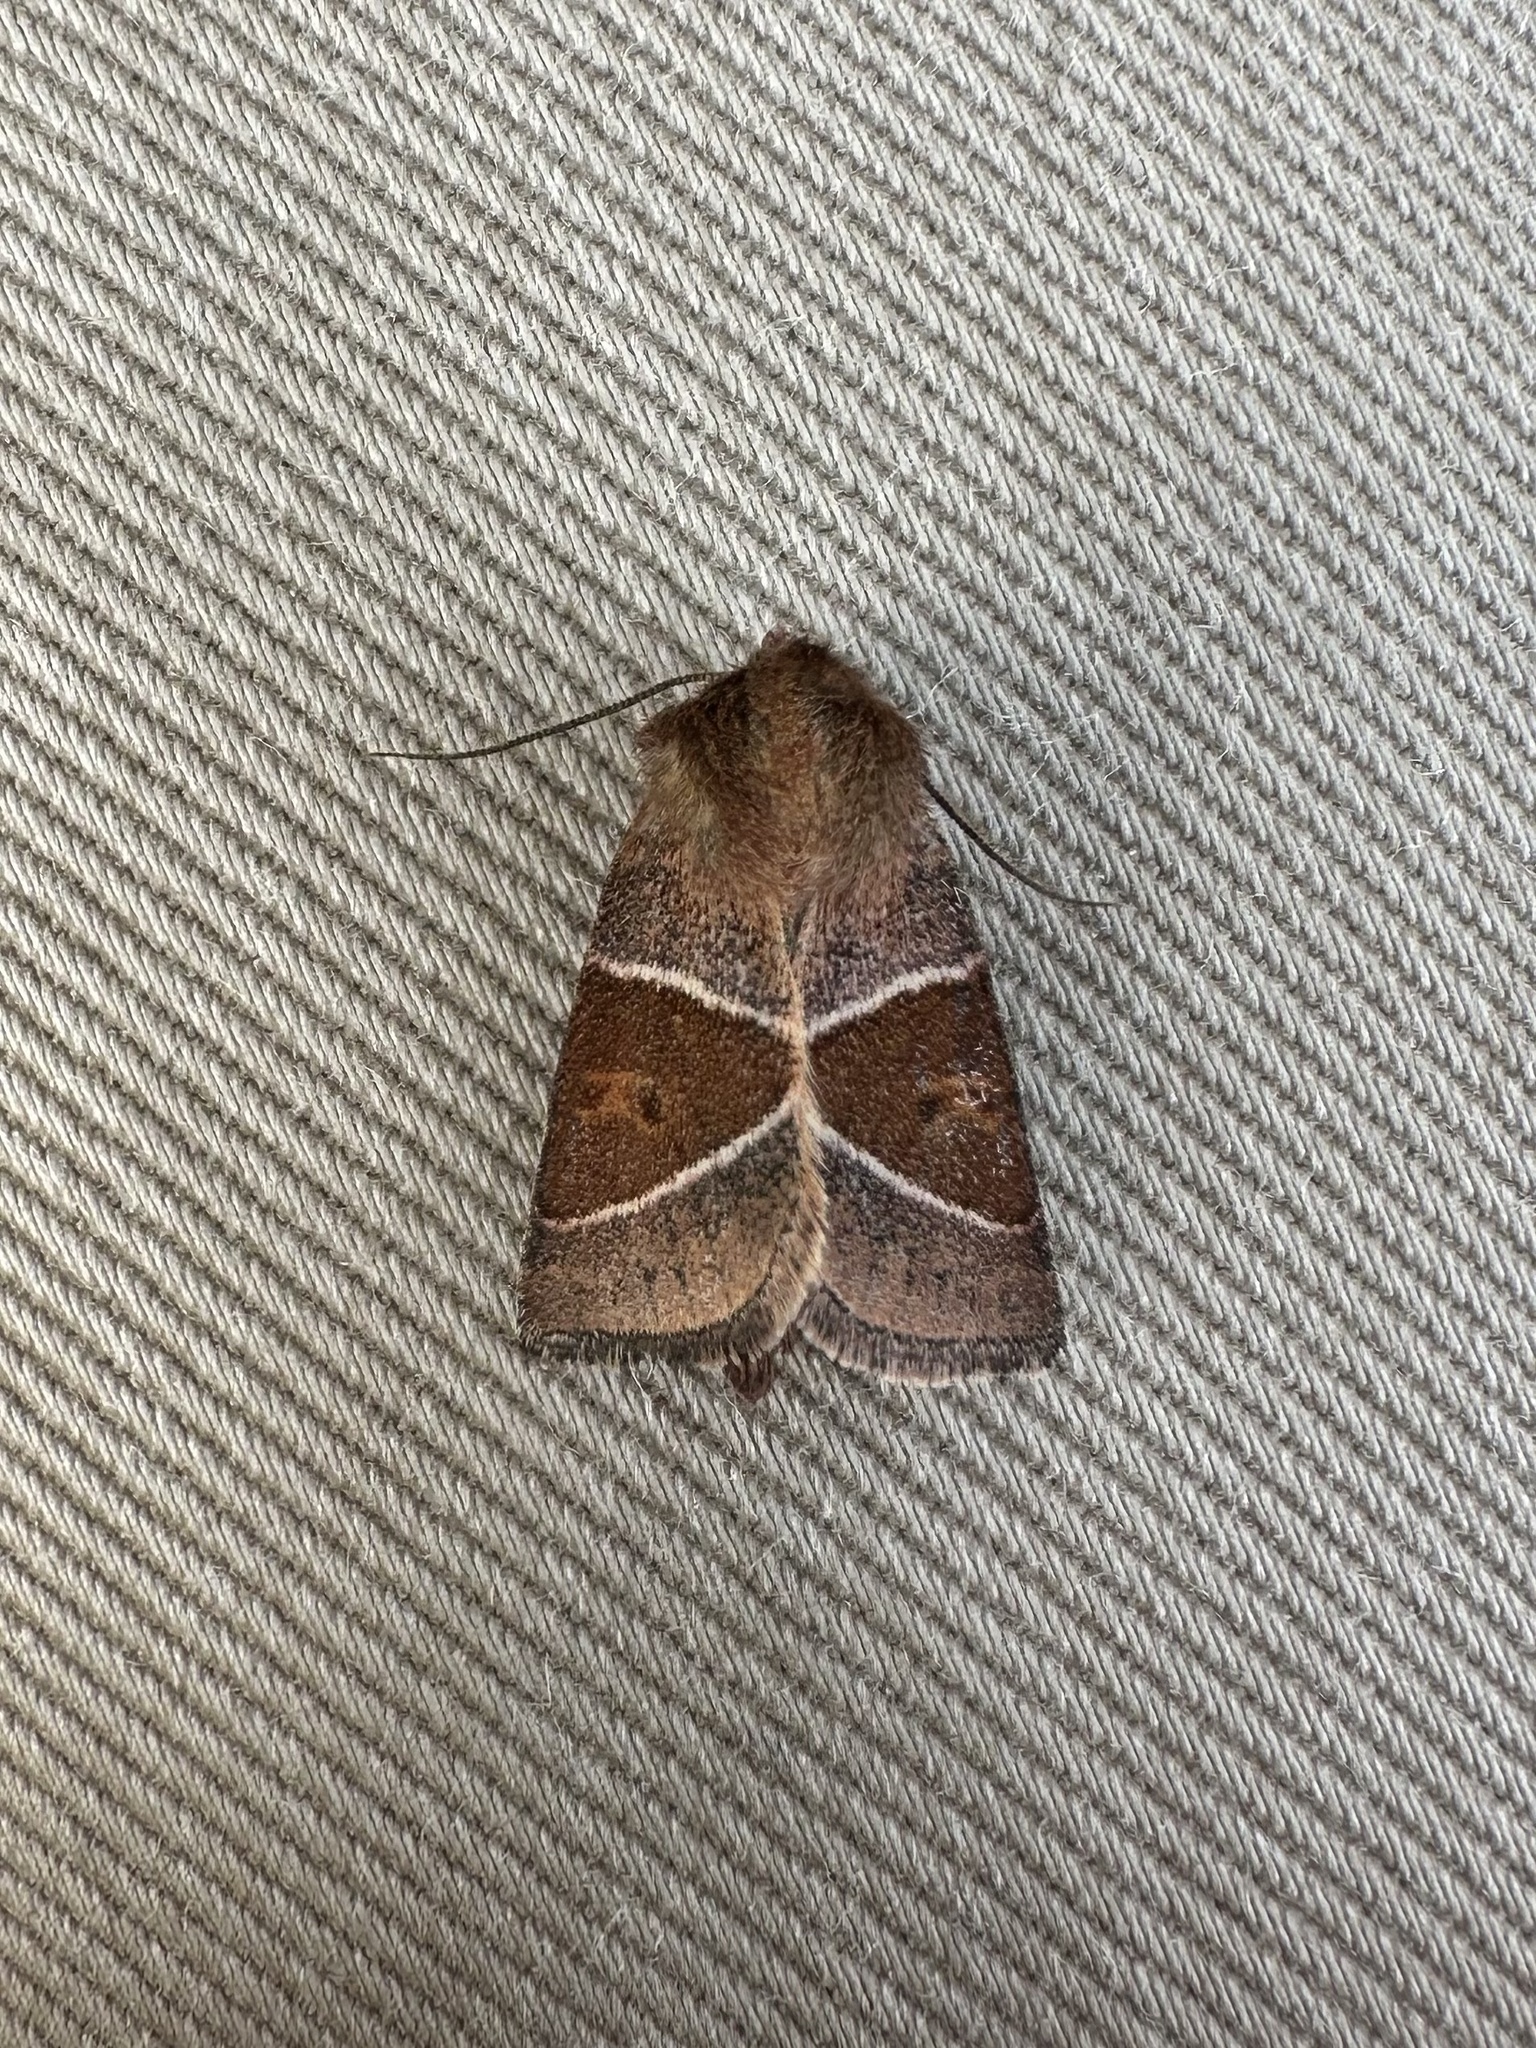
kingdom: Animalia
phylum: Arthropoda
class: Insecta
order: Lepidoptera
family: Noctuidae
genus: Lemmeria
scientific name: Lemmeria digitalis
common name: Fingered lemmeria moth
